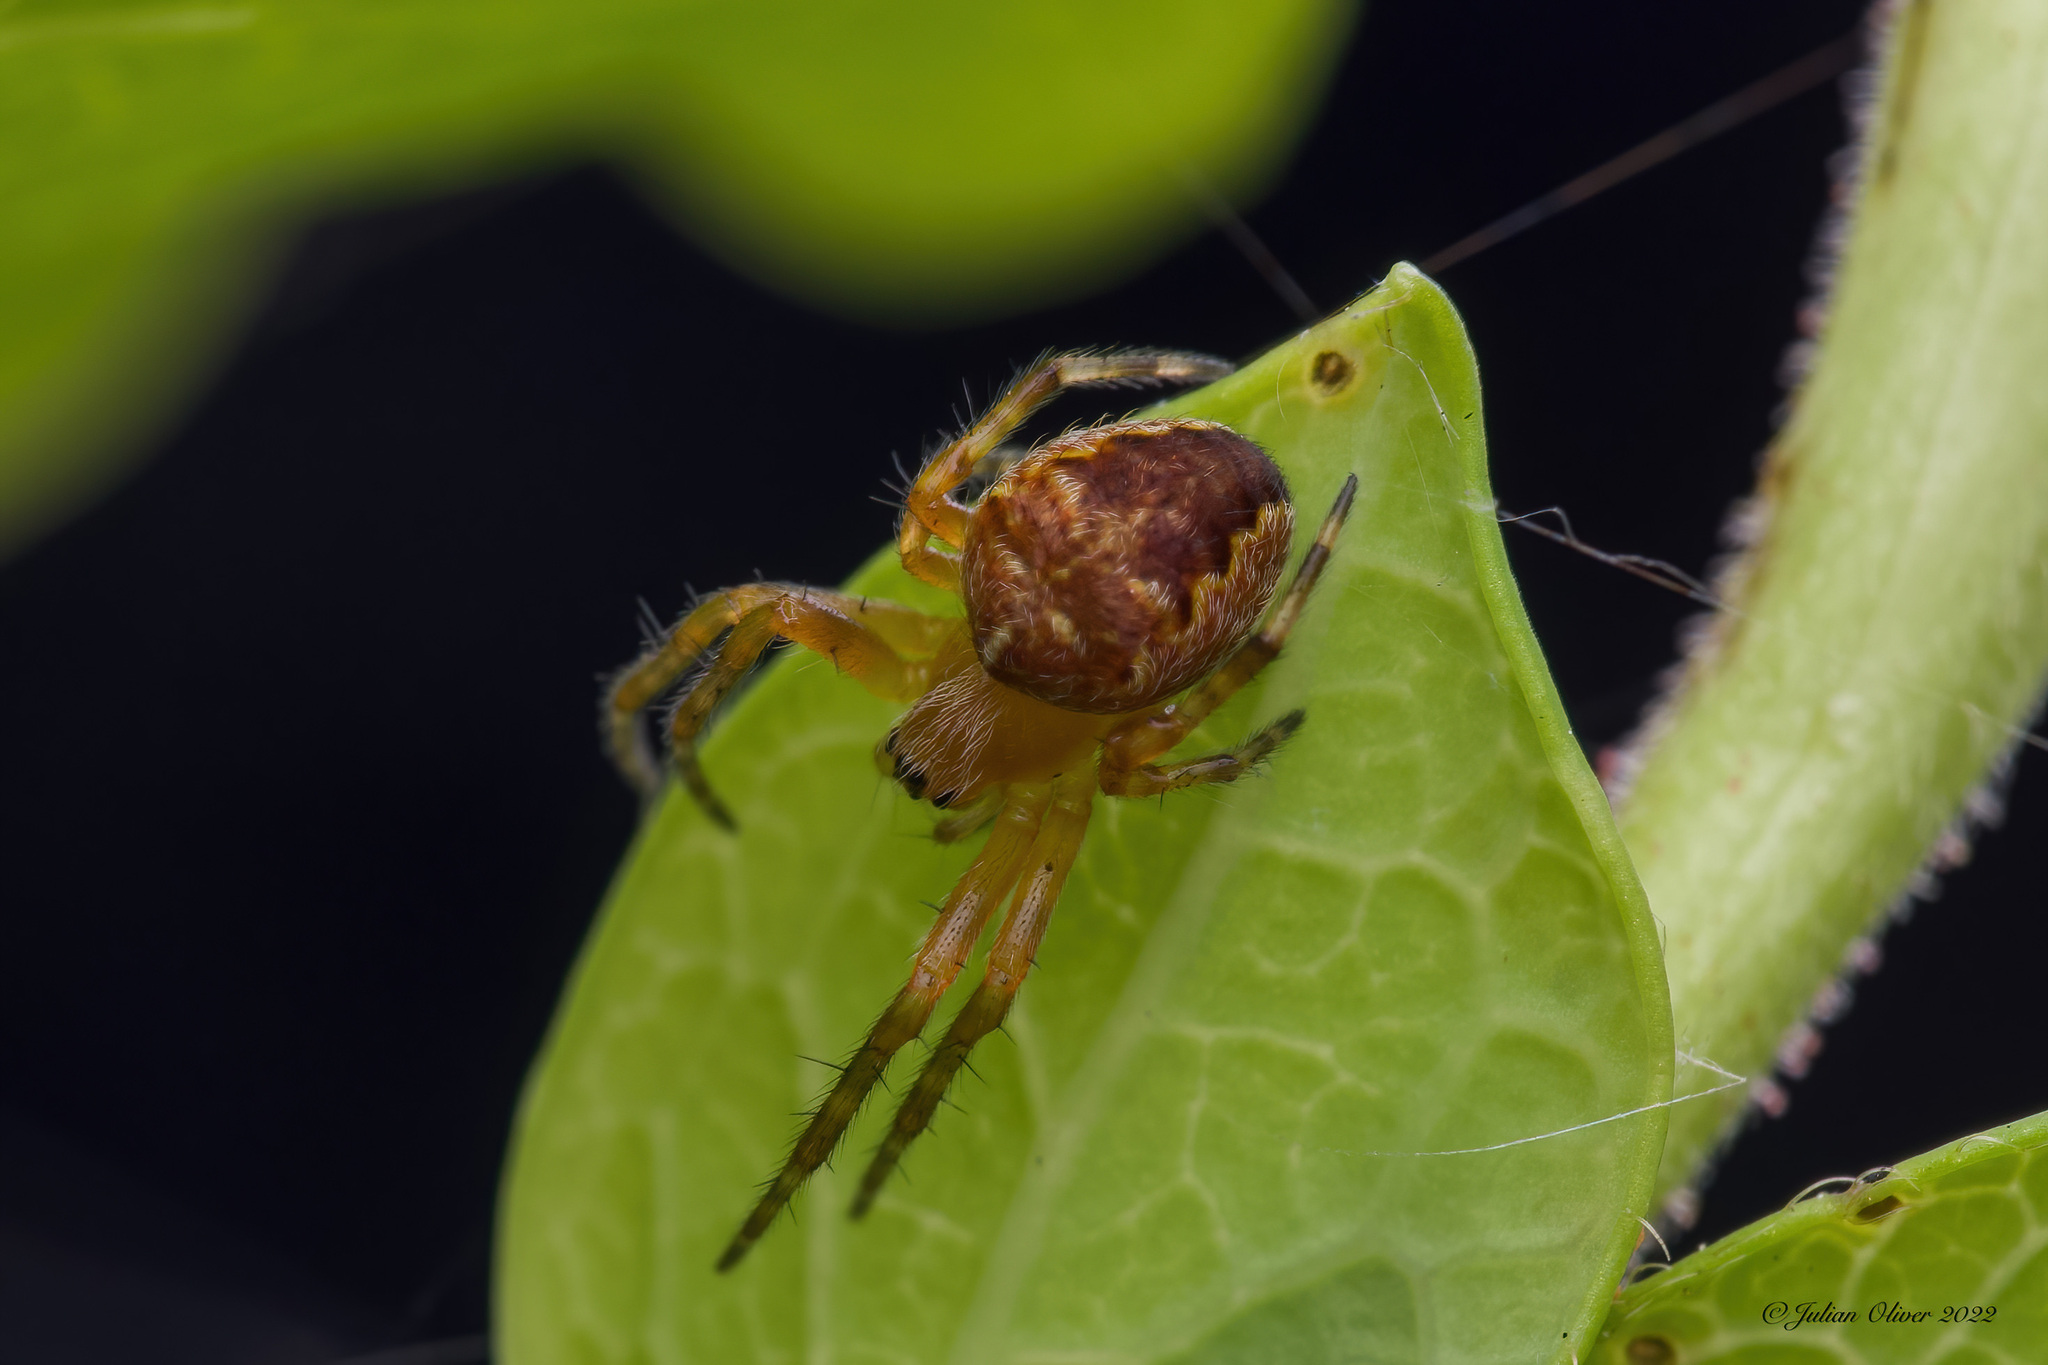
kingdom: Animalia
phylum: Arthropoda
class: Arachnida
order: Araneae
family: Araneidae
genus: Araneus
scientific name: Araneus diadematus
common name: Cross orbweaver
